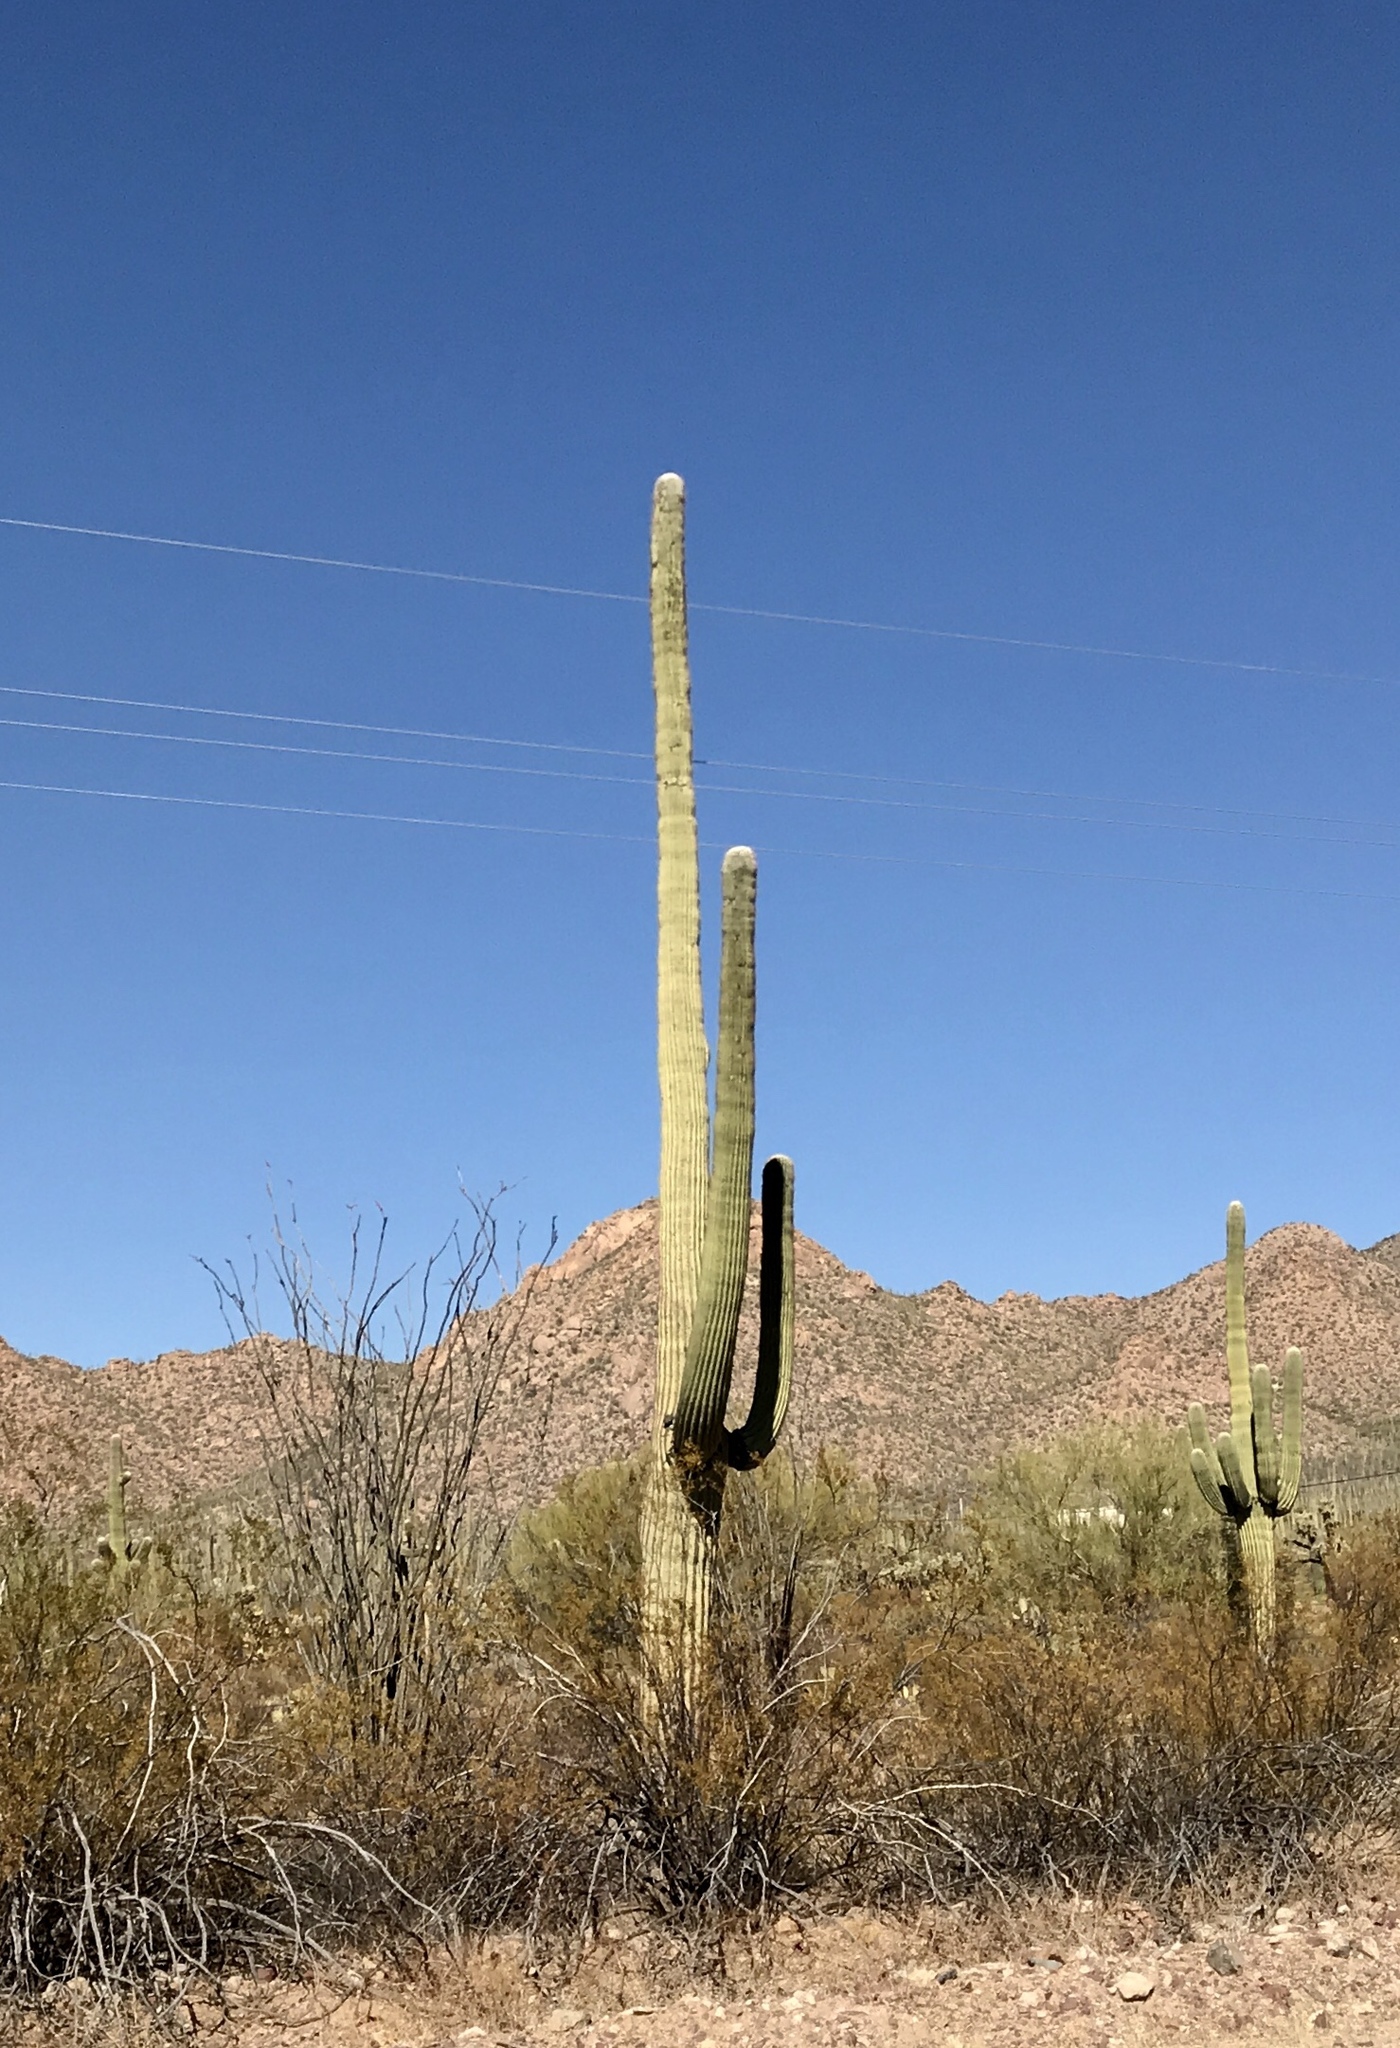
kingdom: Plantae
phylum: Tracheophyta
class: Magnoliopsida
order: Caryophyllales
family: Cactaceae
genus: Carnegiea
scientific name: Carnegiea gigantea
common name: Saguaro
